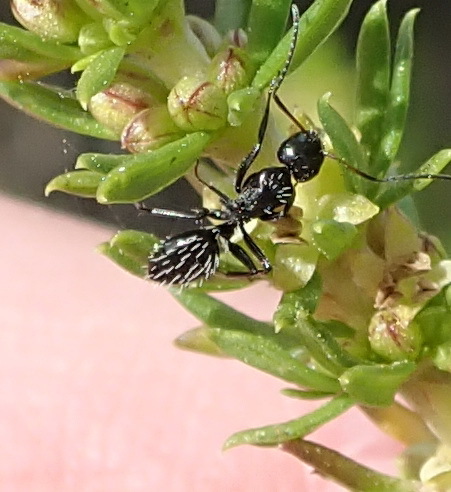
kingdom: Animalia
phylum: Arthropoda
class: Insecta
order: Hymenoptera
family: Formicidae
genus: Camponotus
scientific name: Camponotus niveosetosus
